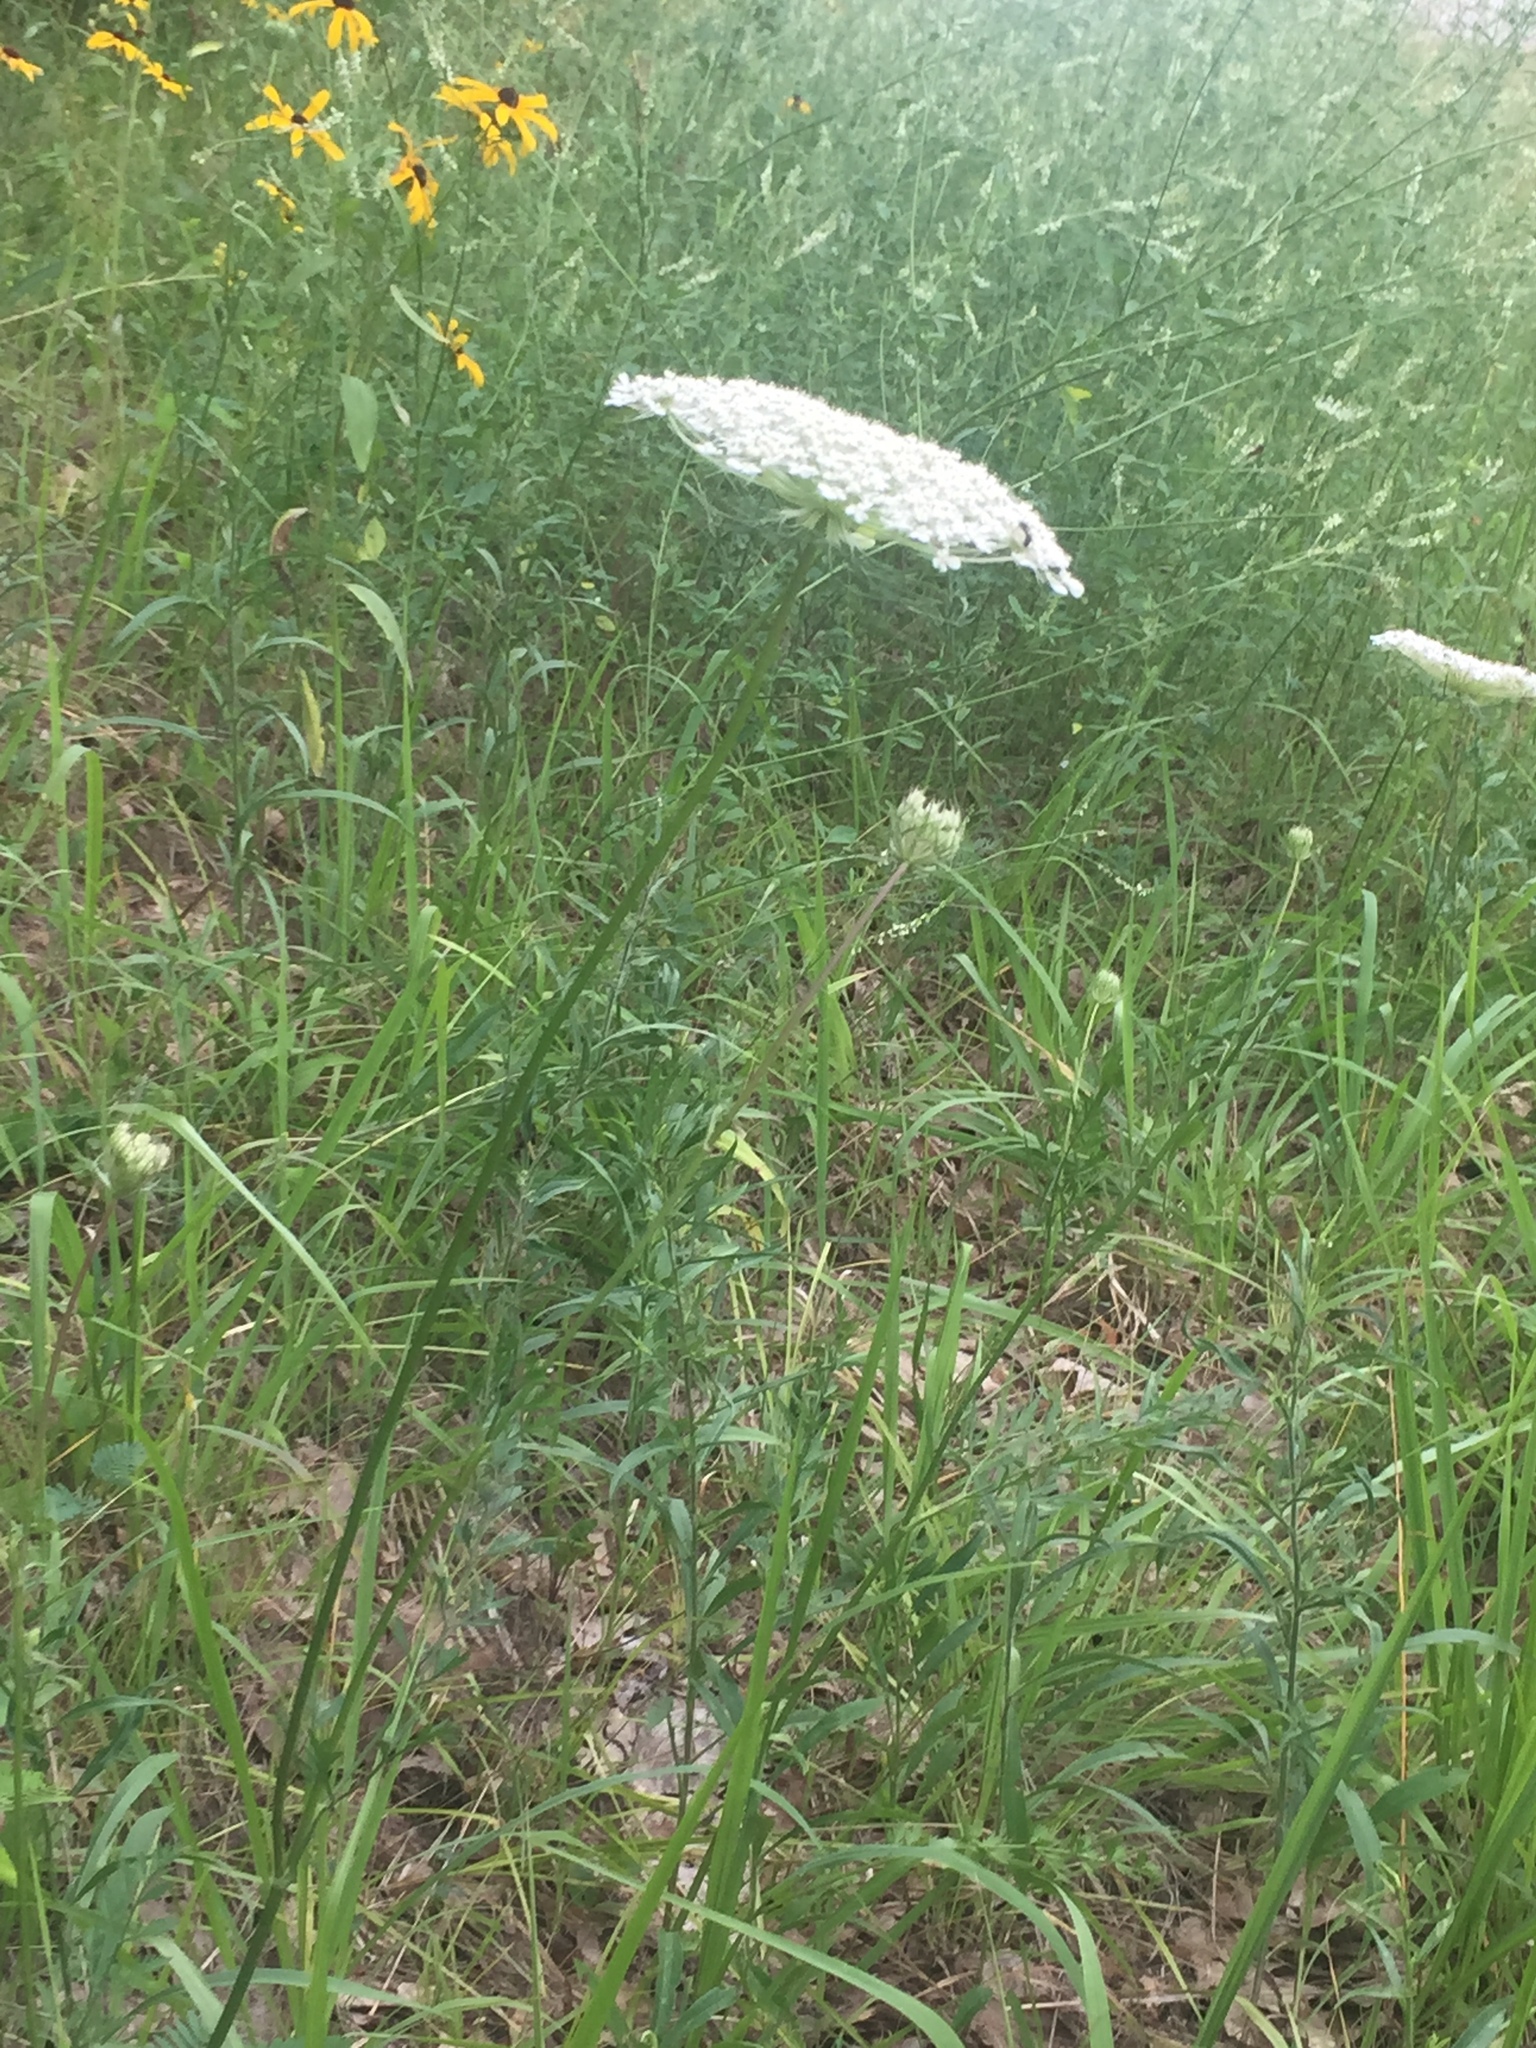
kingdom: Plantae
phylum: Tracheophyta
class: Magnoliopsida
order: Apiales
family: Apiaceae
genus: Daucus
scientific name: Daucus carota
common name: Wild carrot
